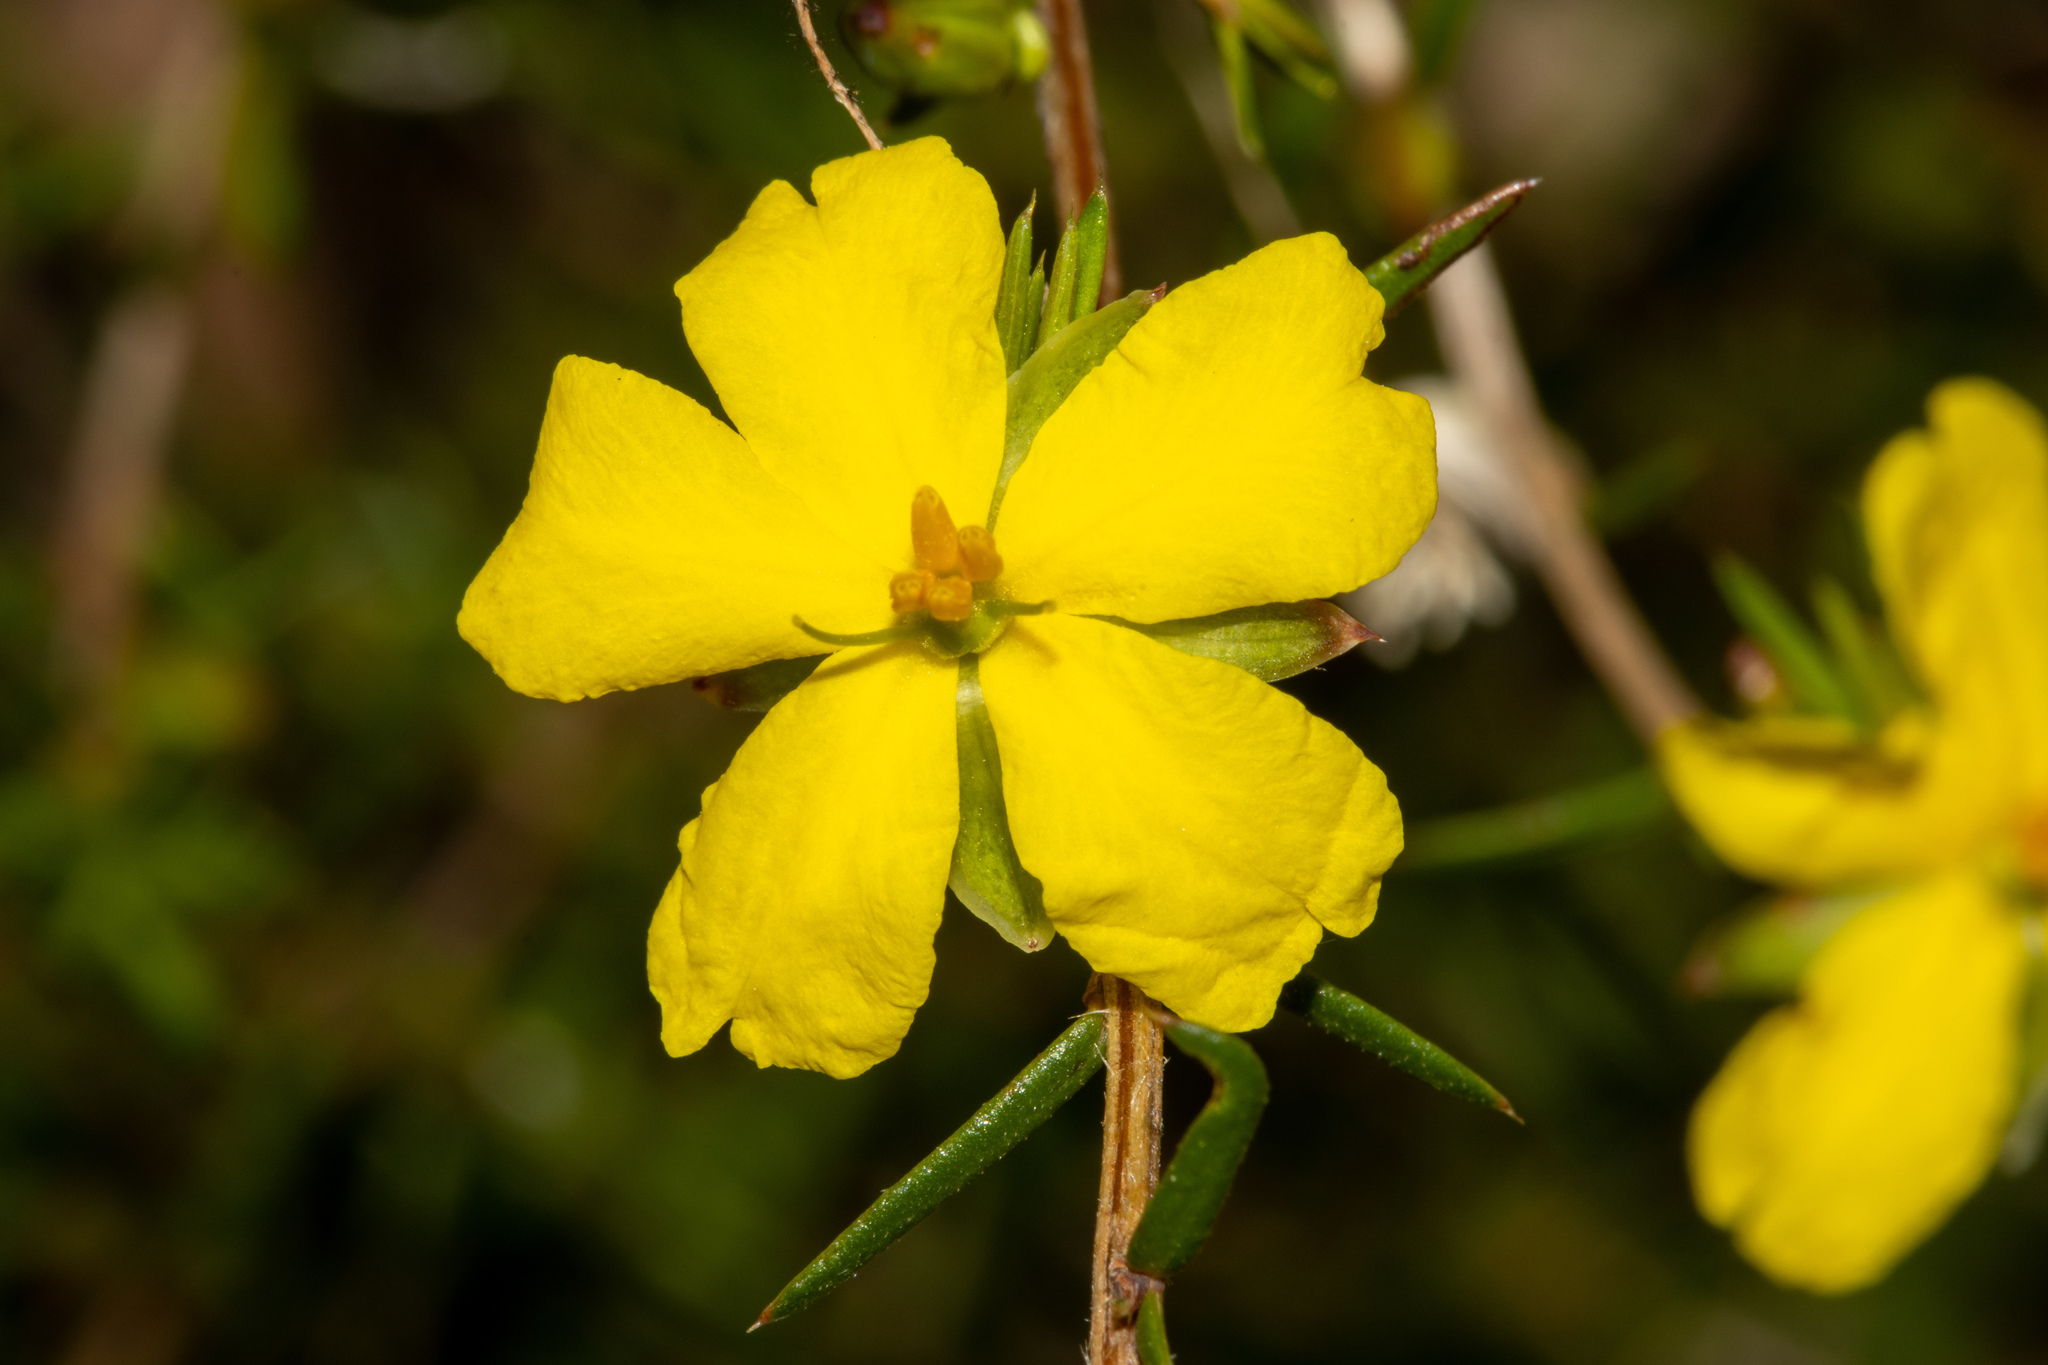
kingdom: Plantae
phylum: Tracheophyta
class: Magnoliopsida
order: Dilleniales
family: Dilleniaceae
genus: Hibbertia
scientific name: Hibbertia exutiacies
